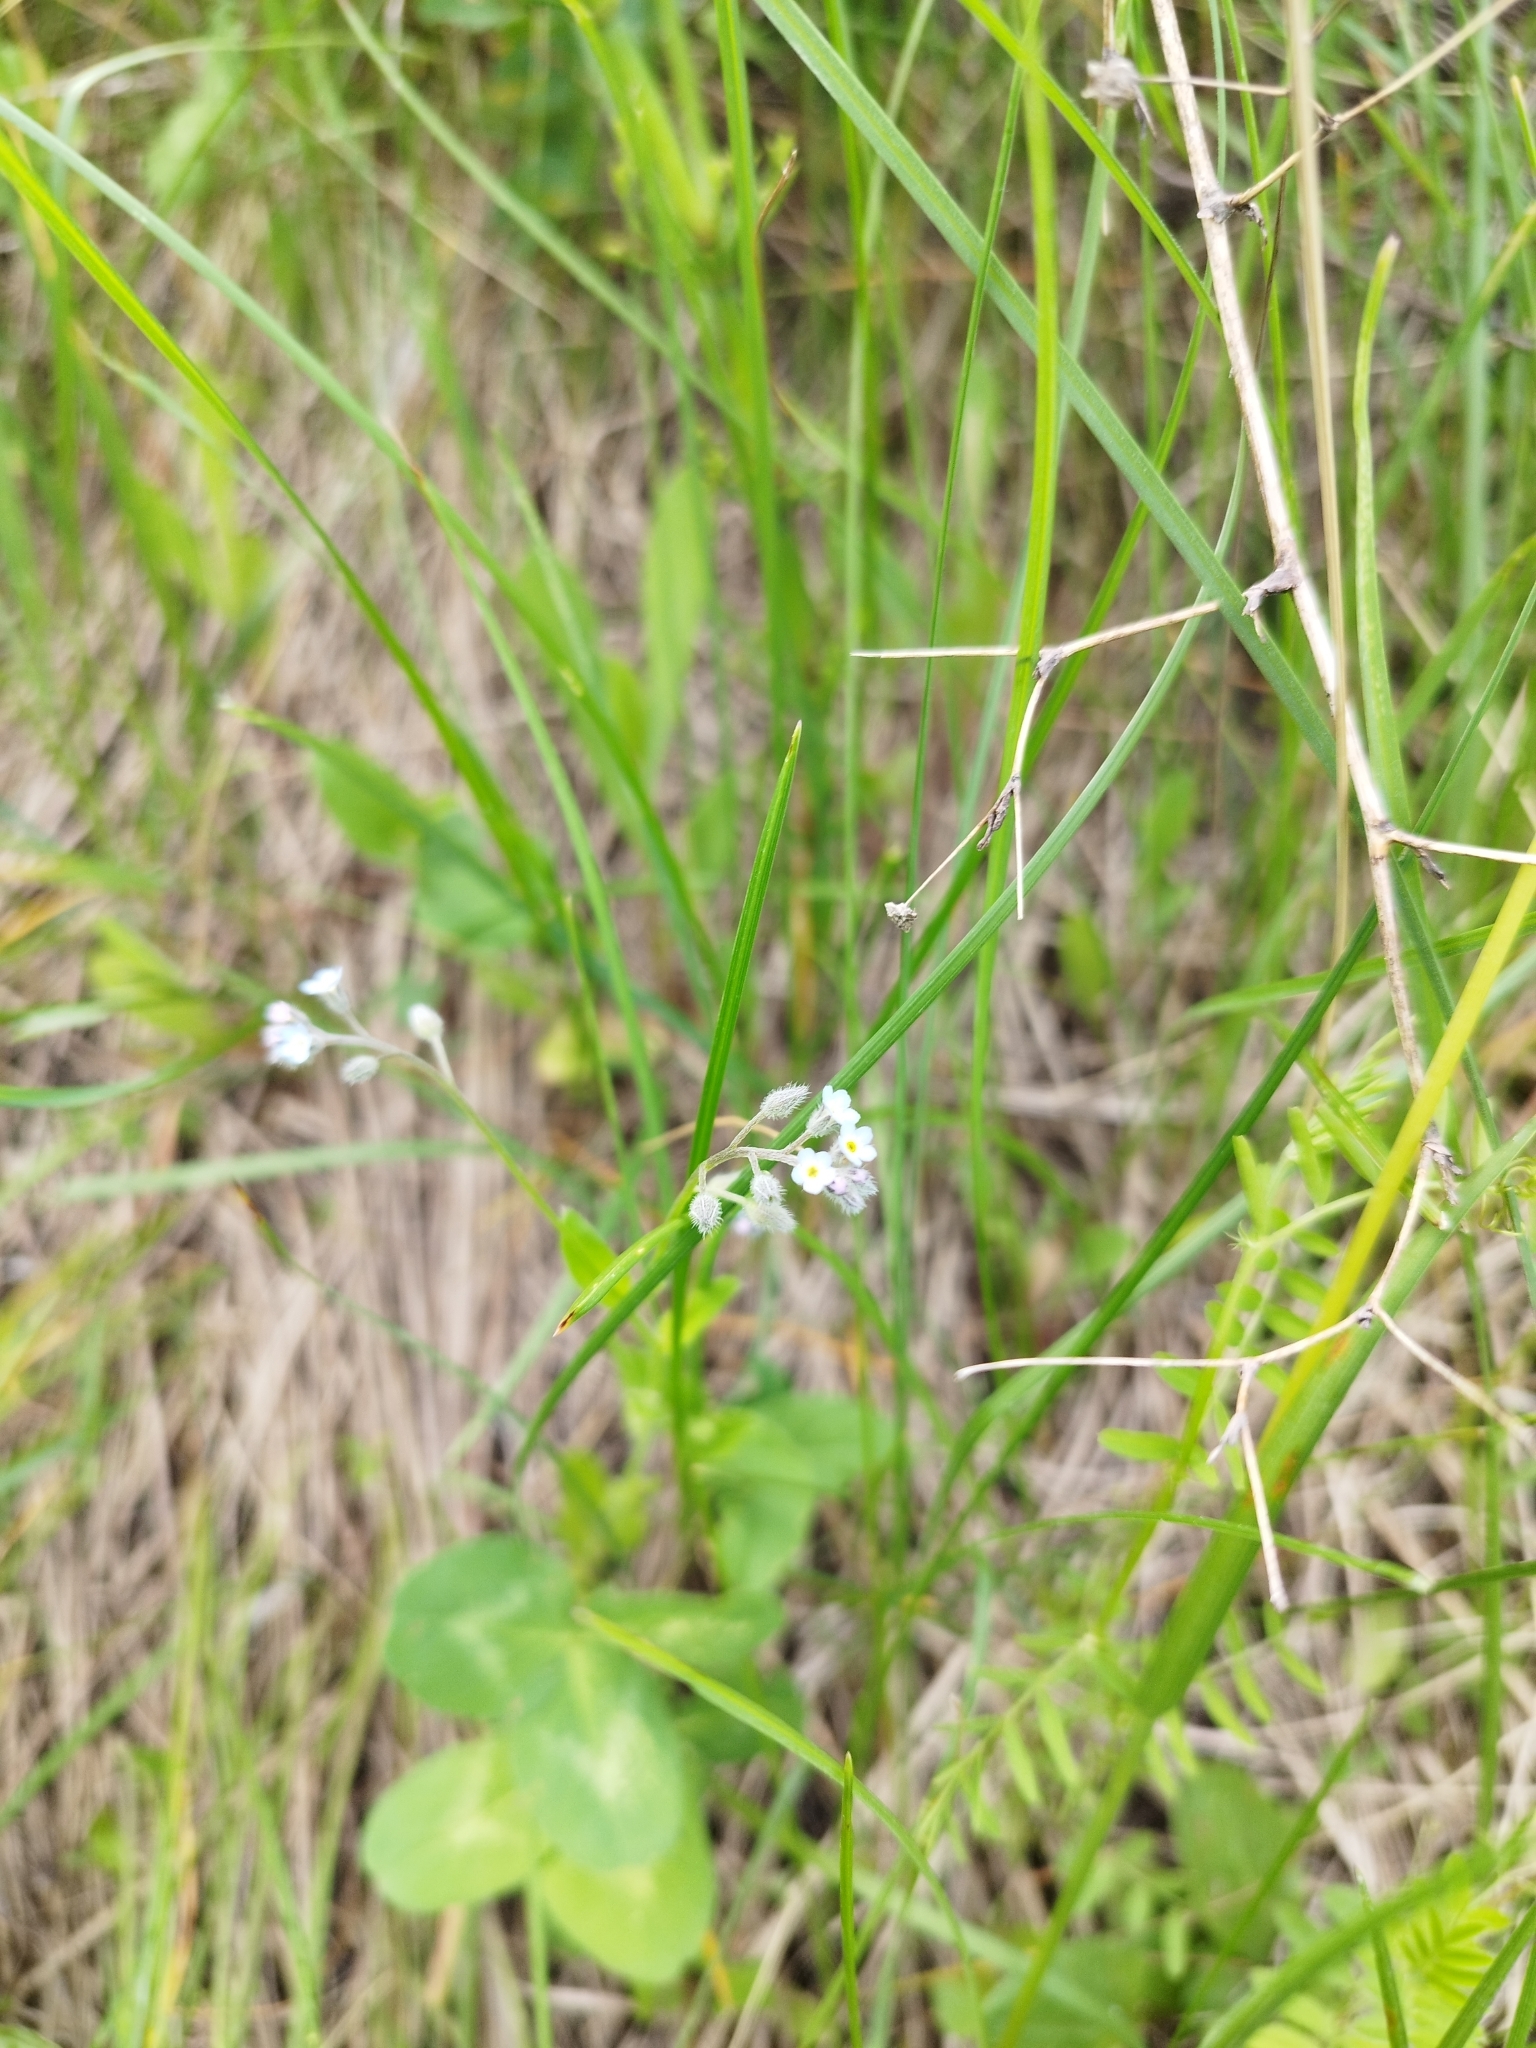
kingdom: Plantae
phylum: Tracheophyta
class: Magnoliopsida
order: Boraginales
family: Boraginaceae
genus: Myosotis
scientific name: Myosotis arvensis
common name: Field forget-me-not
